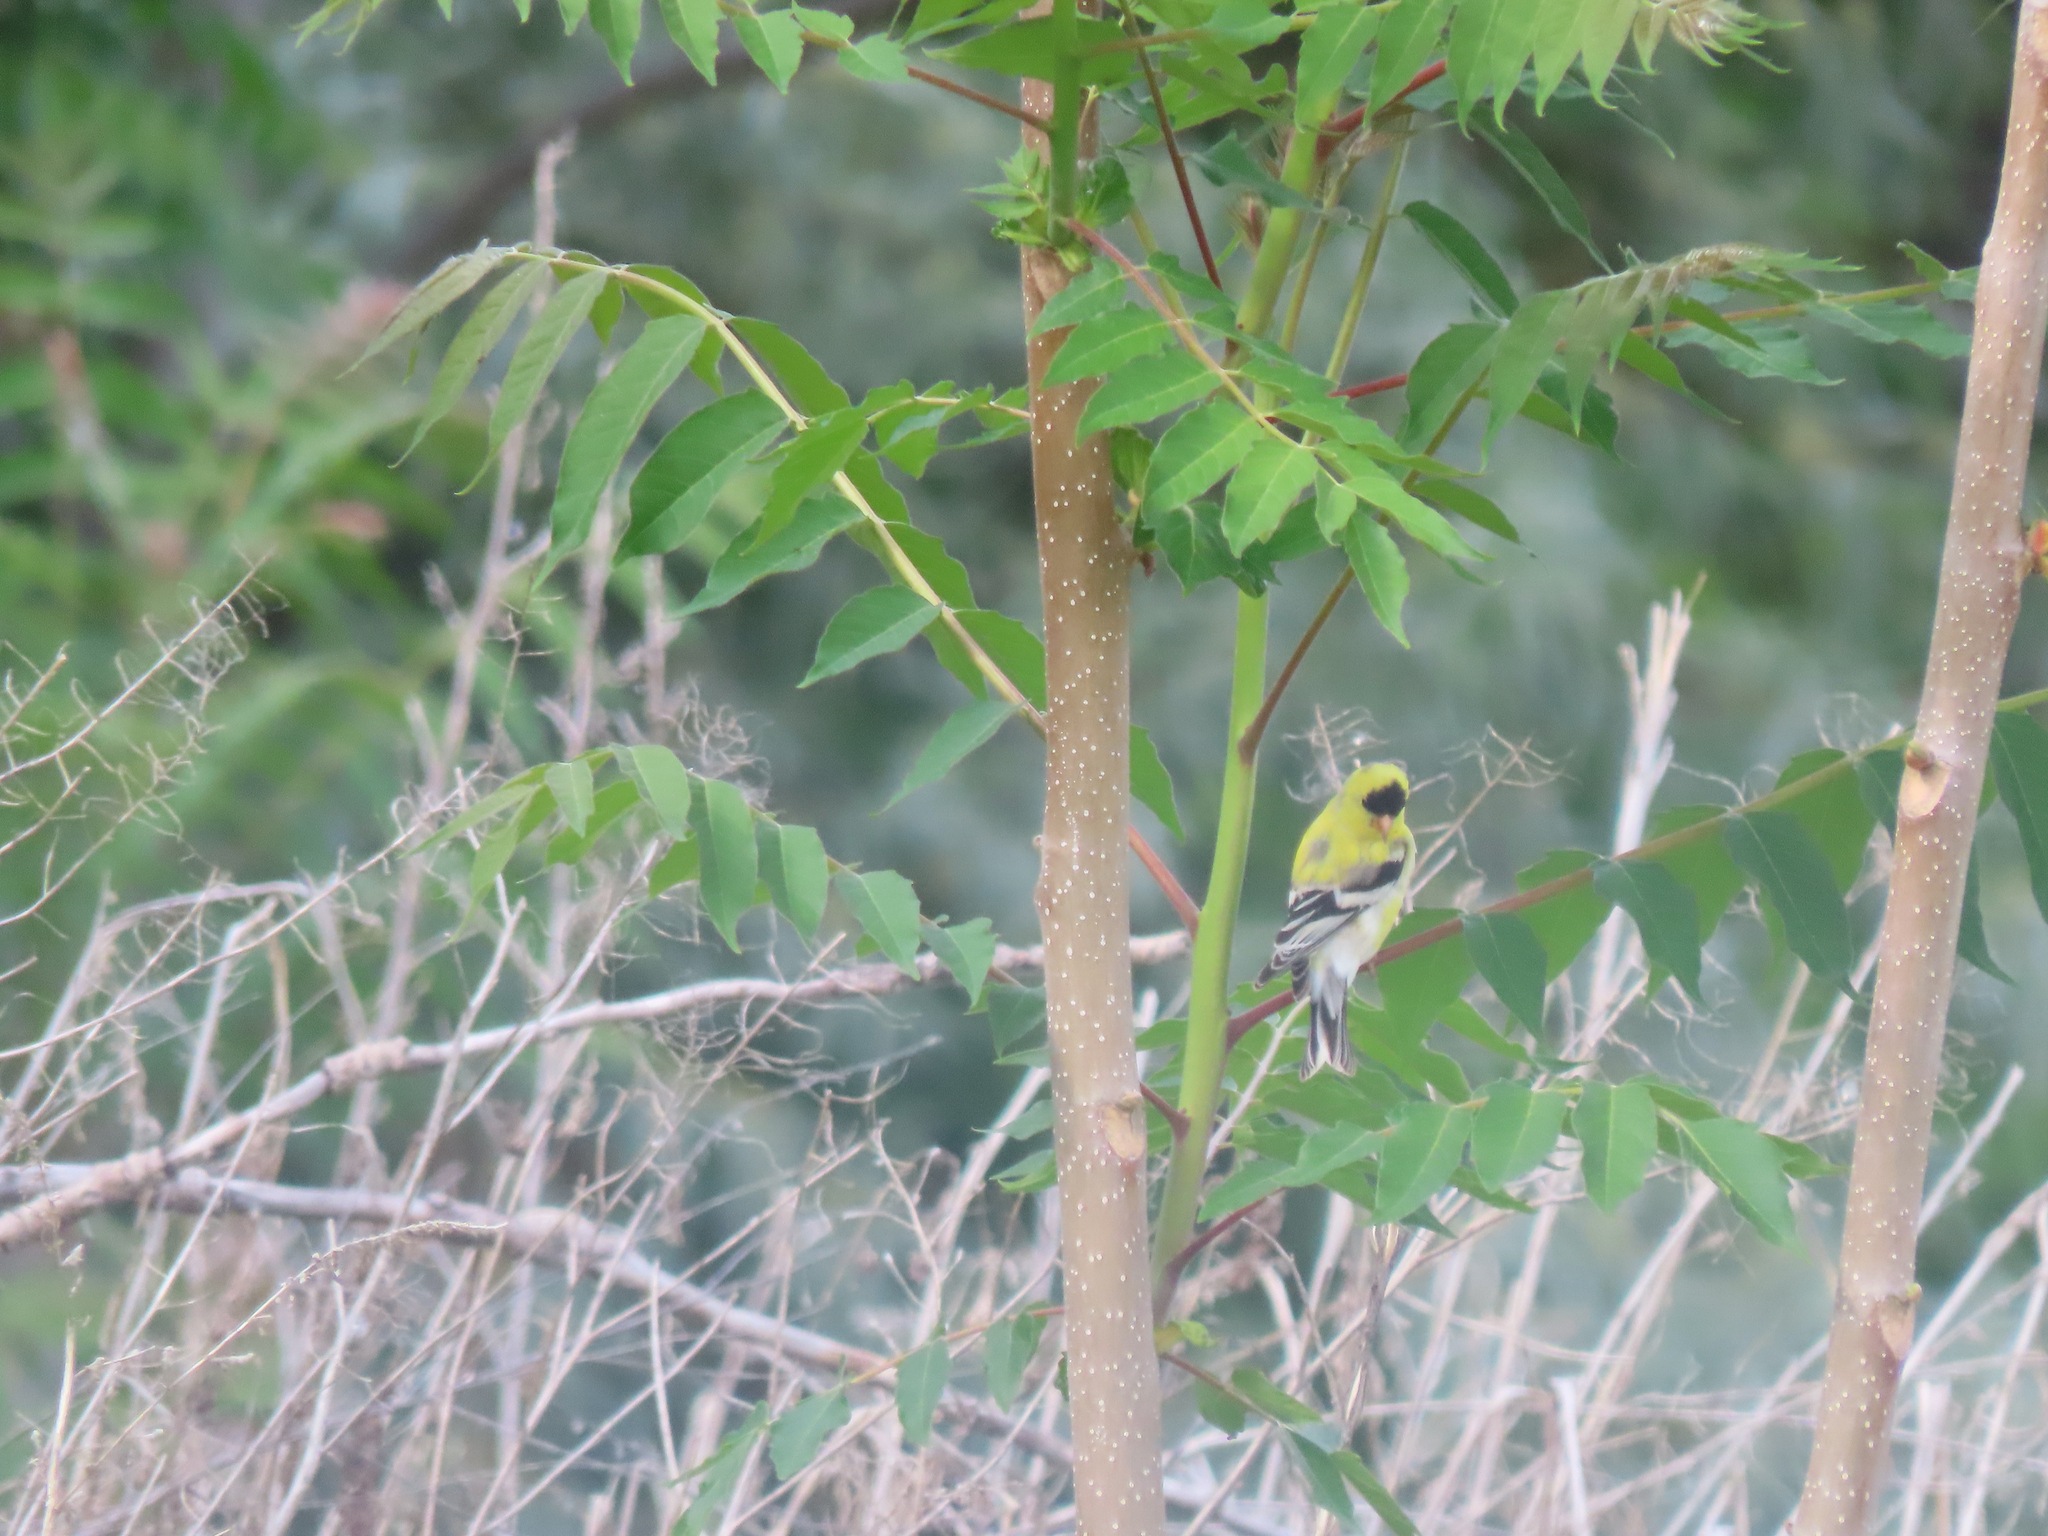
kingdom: Animalia
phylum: Chordata
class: Aves
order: Passeriformes
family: Fringillidae
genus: Spinus
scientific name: Spinus tristis
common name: American goldfinch
